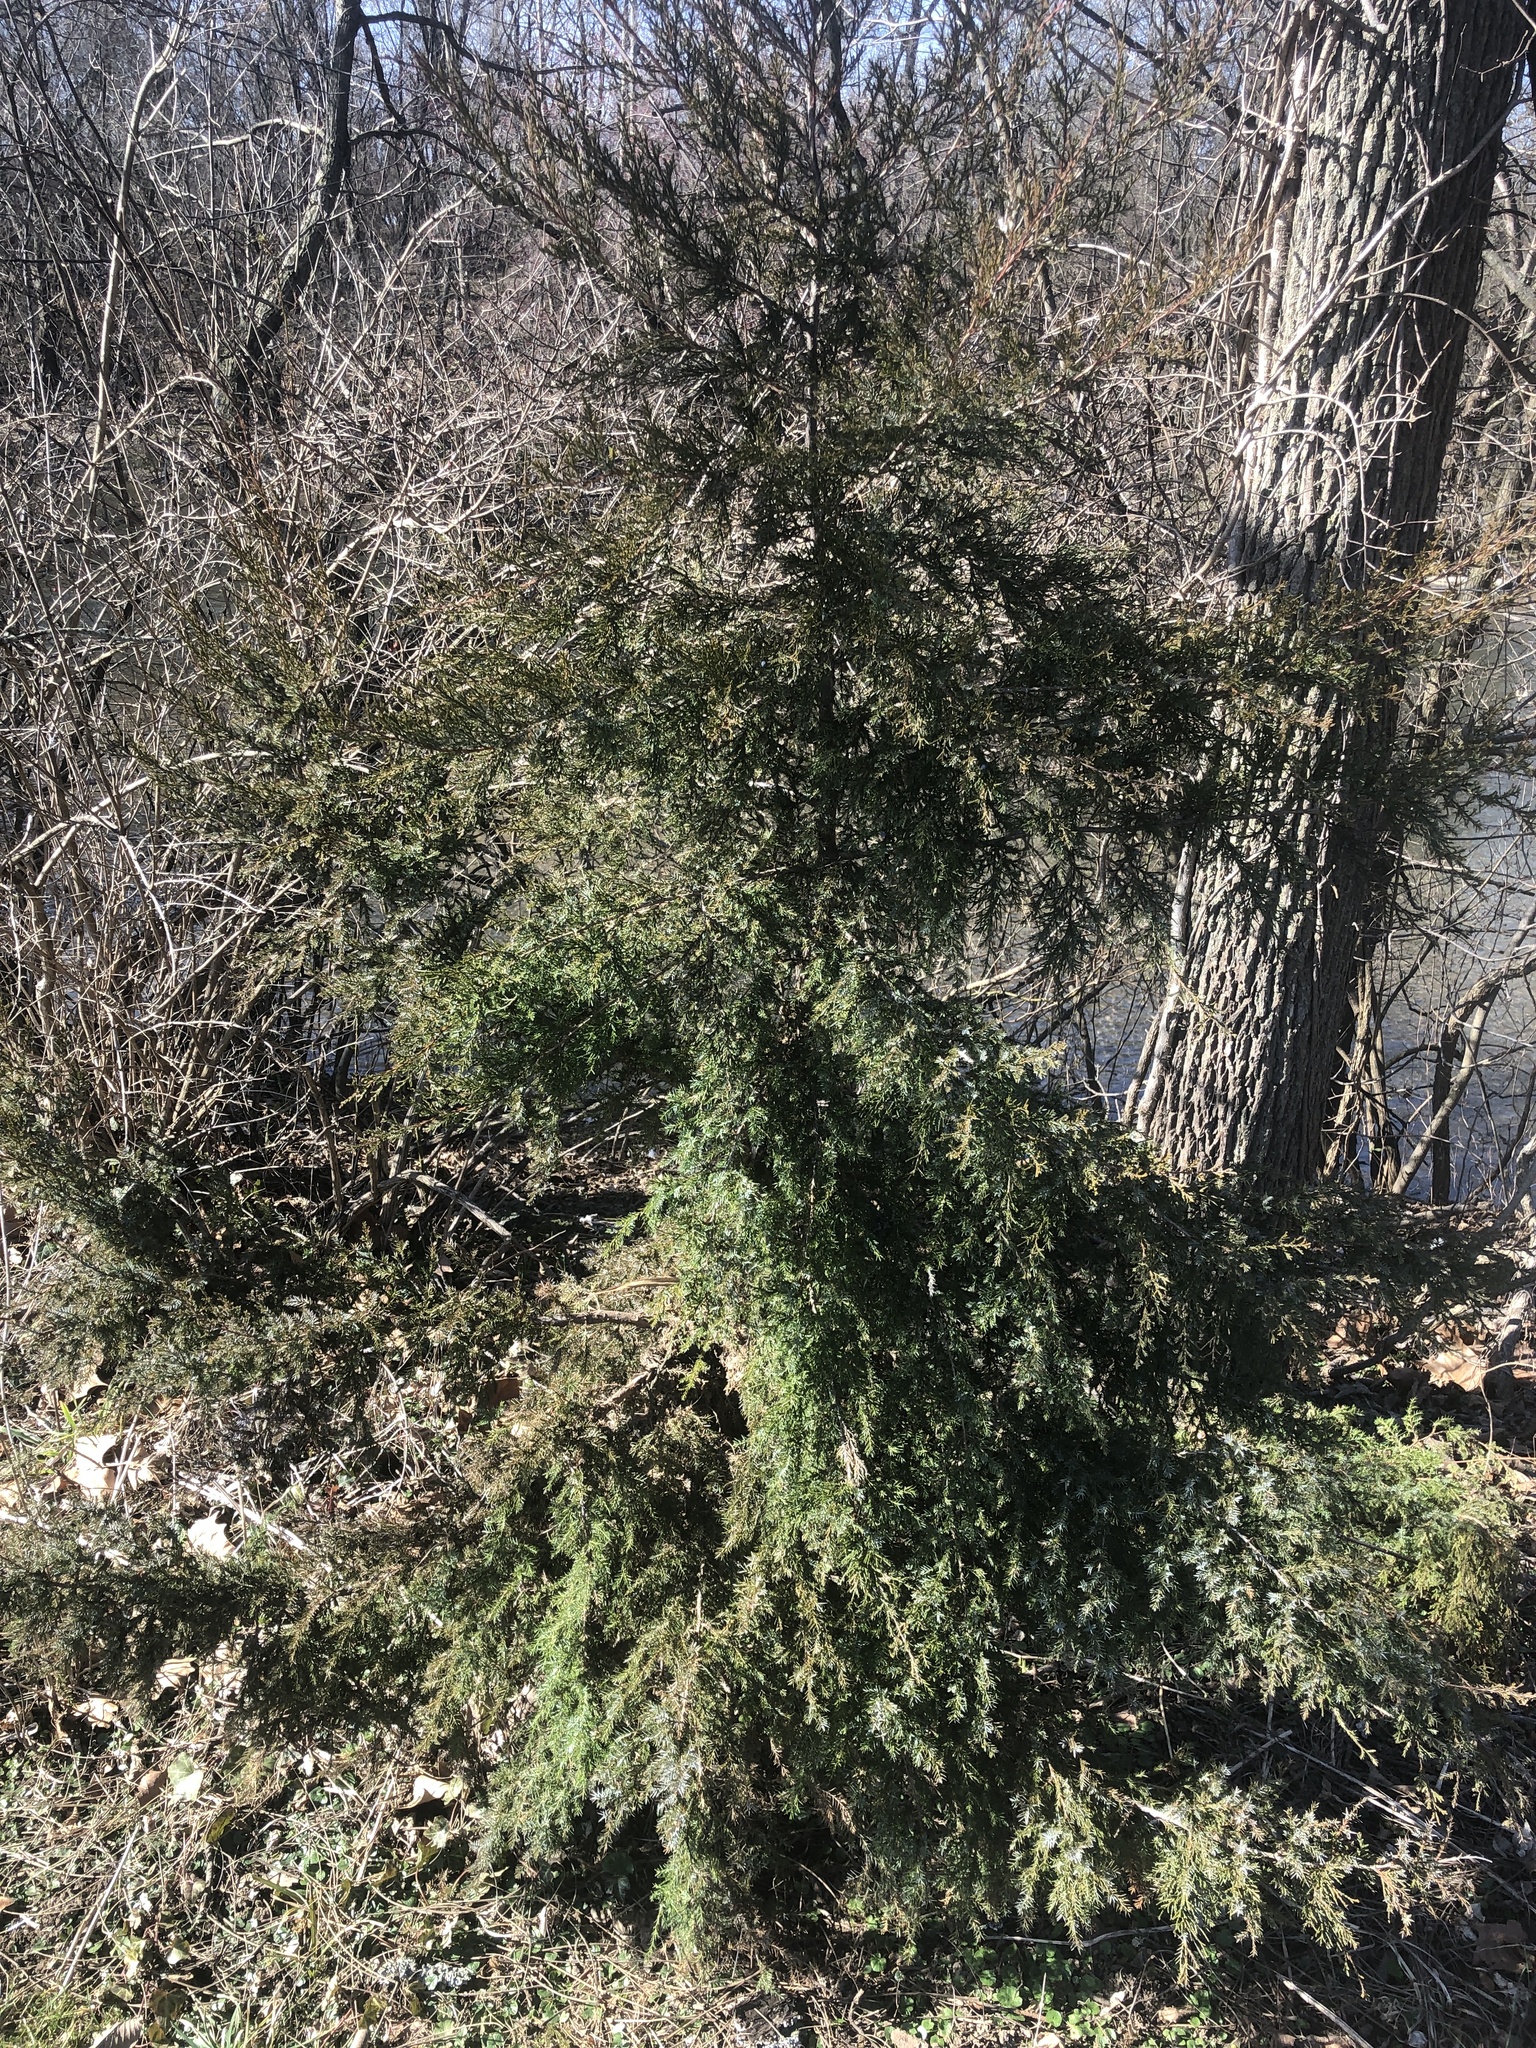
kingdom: Plantae
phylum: Tracheophyta
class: Pinopsida
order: Pinales
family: Cupressaceae
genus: Juniperus
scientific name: Juniperus virginiana
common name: Red juniper
